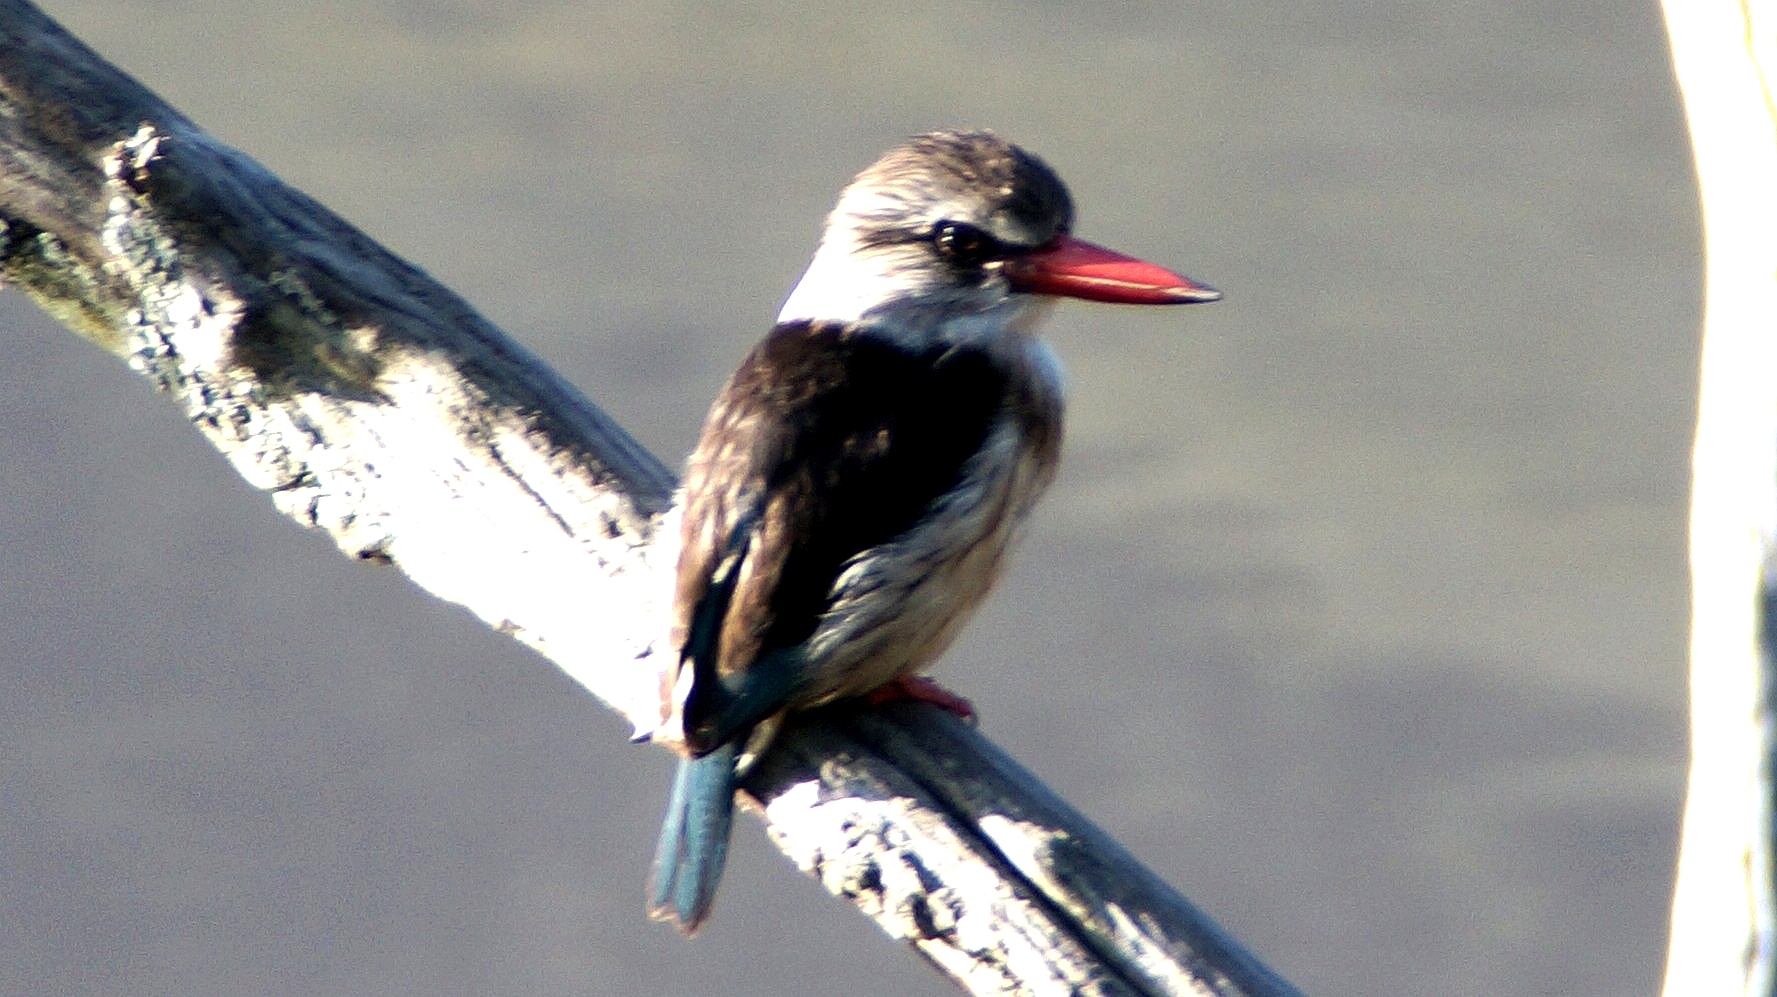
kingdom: Animalia
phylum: Chordata
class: Aves
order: Coraciiformes
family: Alcedinidae
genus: Halcyon
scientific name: Halcyon albiventris
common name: Brown-hooded kingfisher
